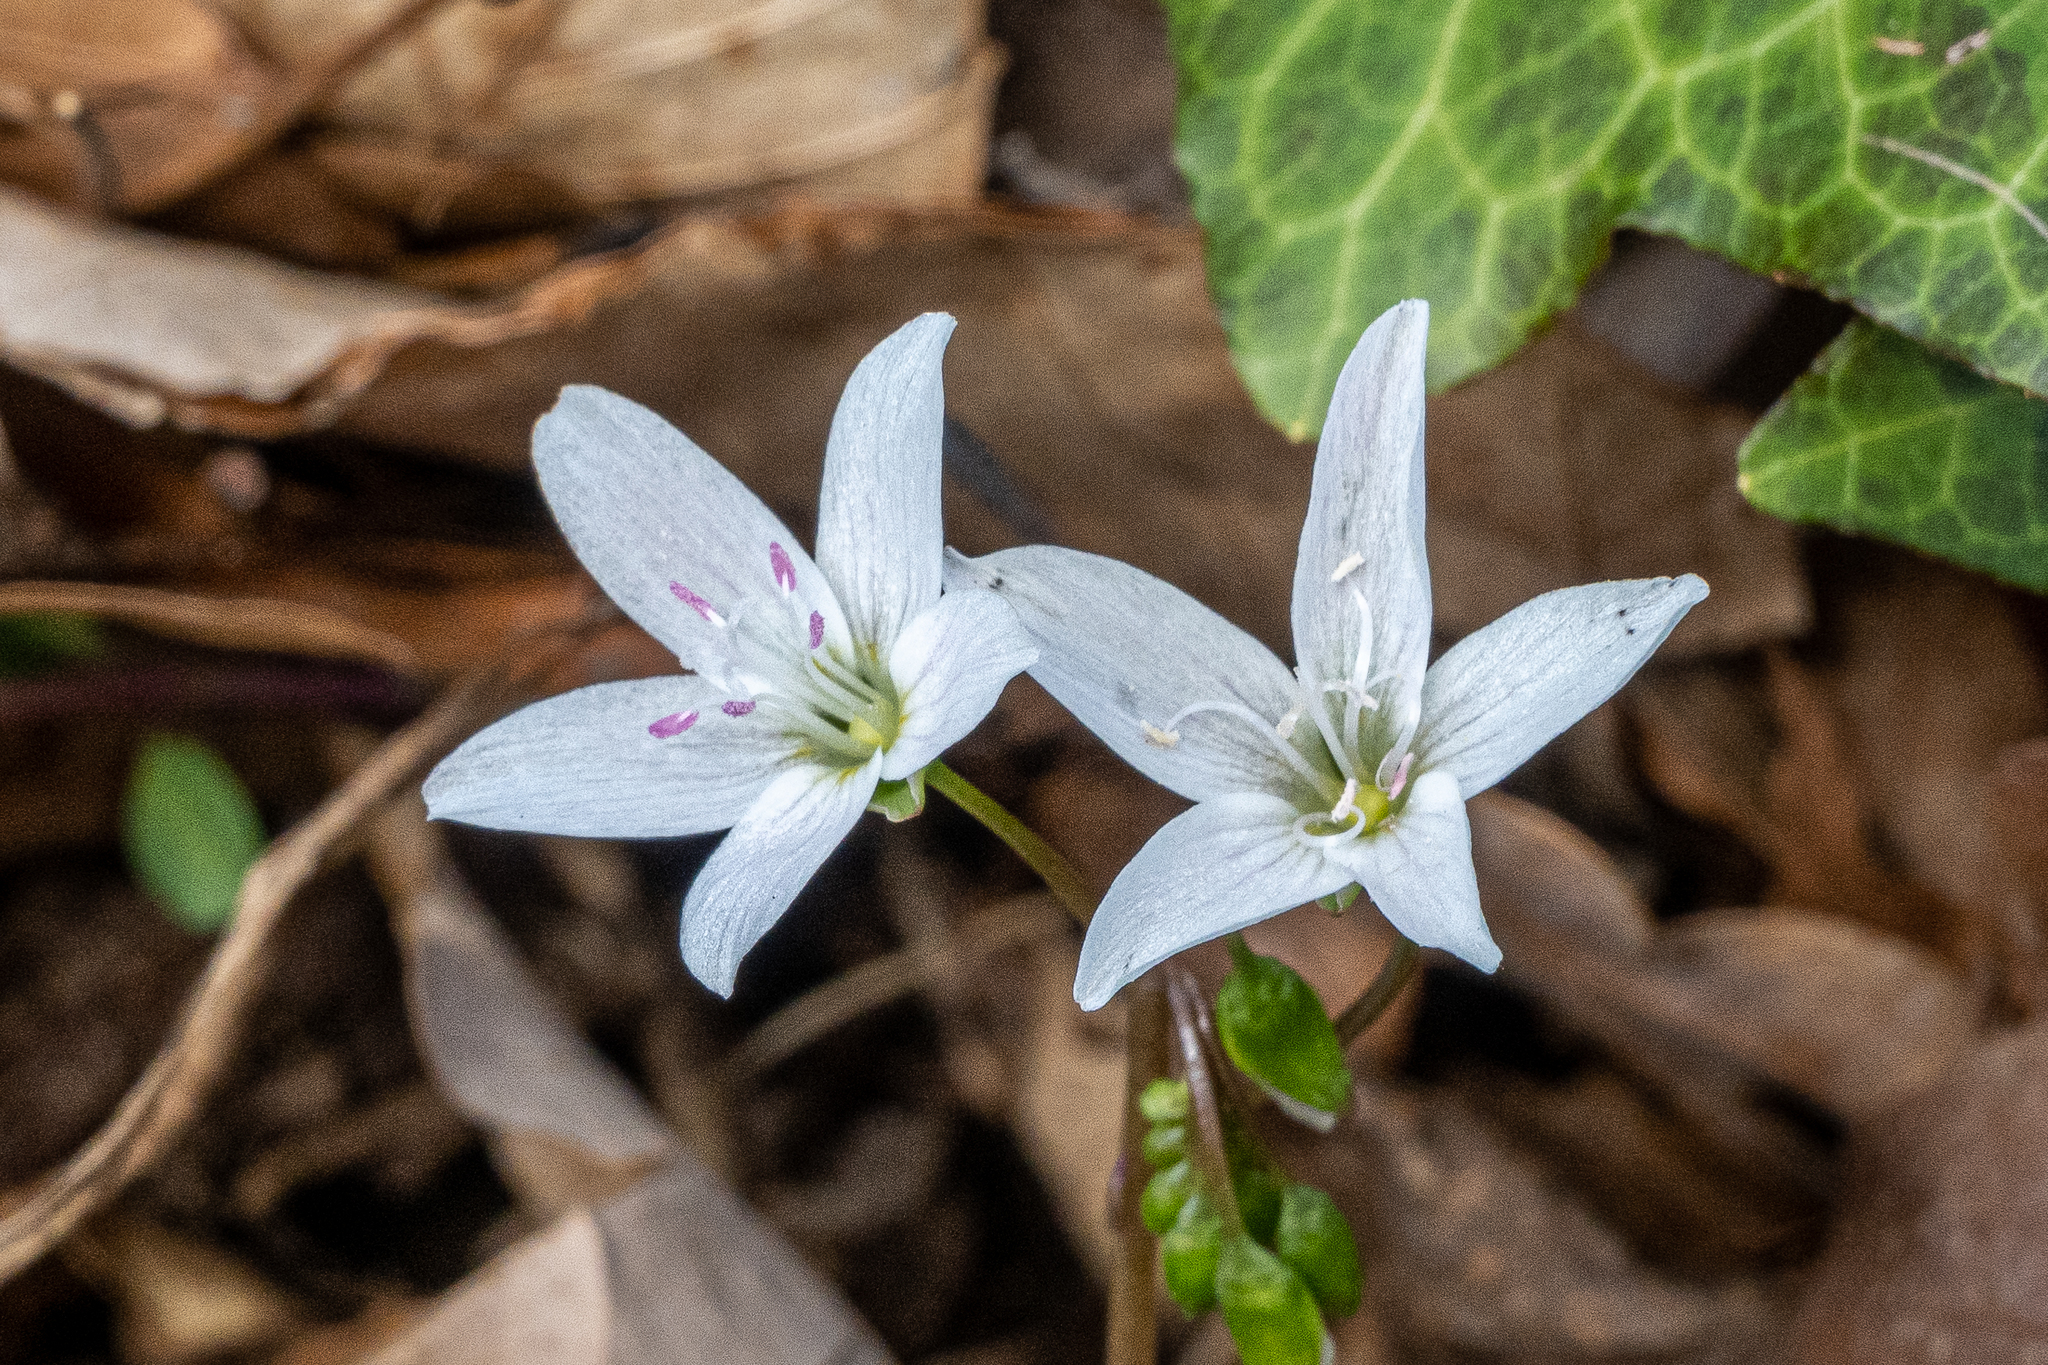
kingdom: Plantae
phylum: Tracheophyta
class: Magnoliopsida
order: Caryophyllales
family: Montiaceae
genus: Claytonia
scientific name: Claytonia virginica
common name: Virginia springbeauty
